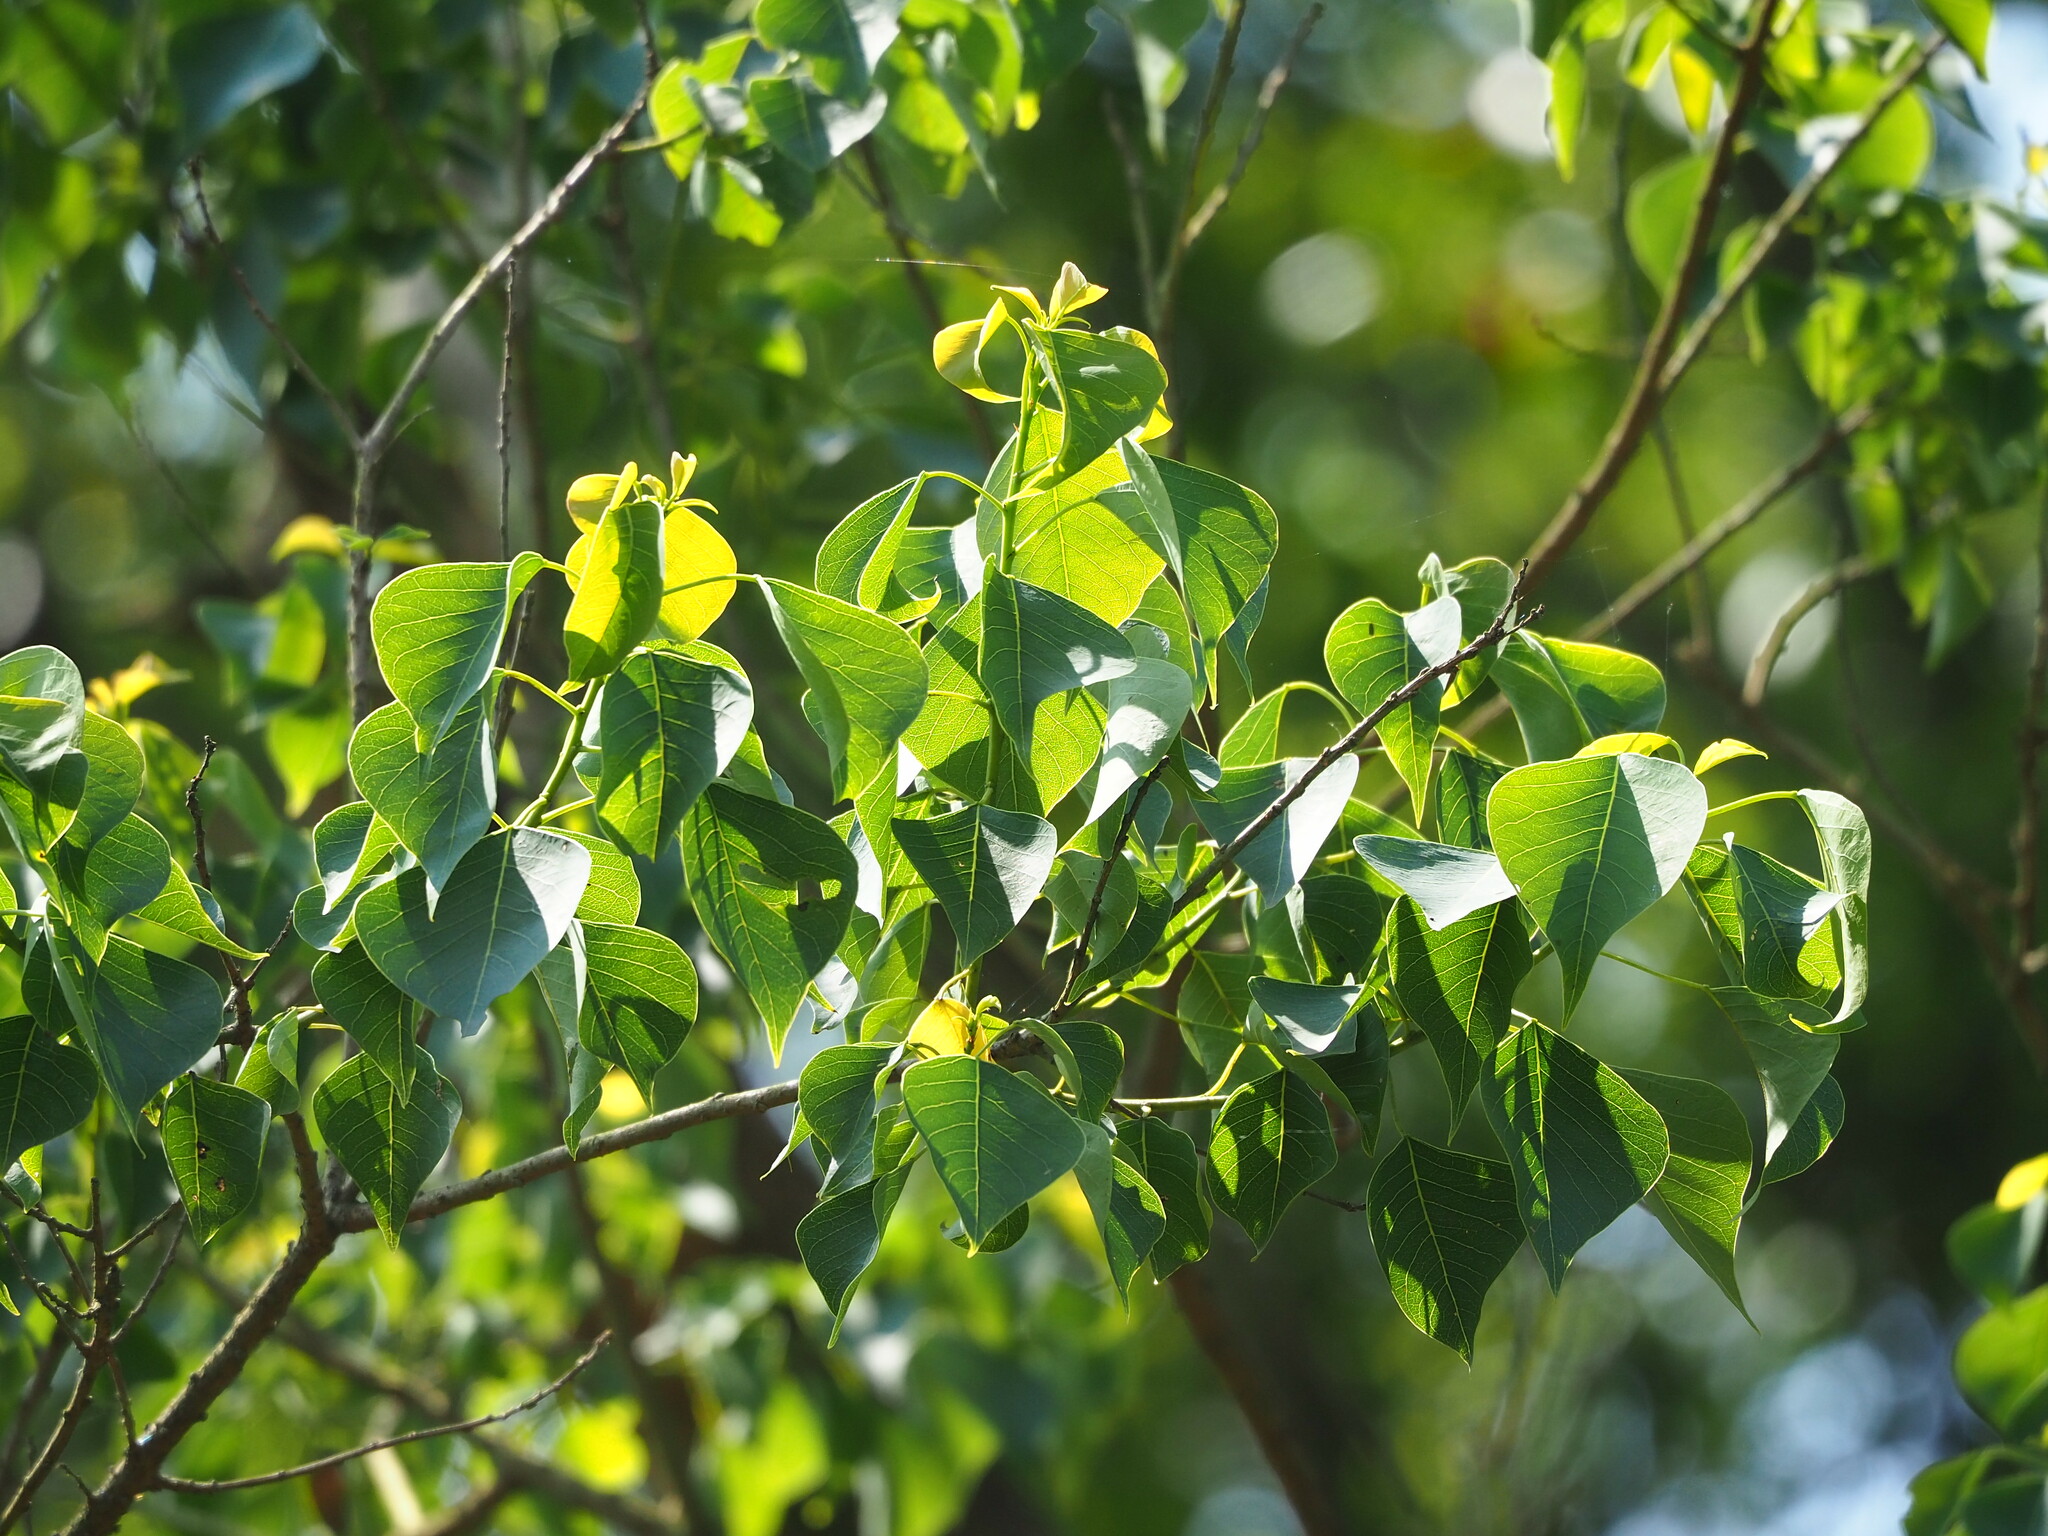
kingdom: Plantae
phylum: Tracheophyta
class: Magnoliopsida
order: Malpighiales
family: Euphorbiaceae
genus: Triadica
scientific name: Triadica sebifera
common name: Chinese tallow
